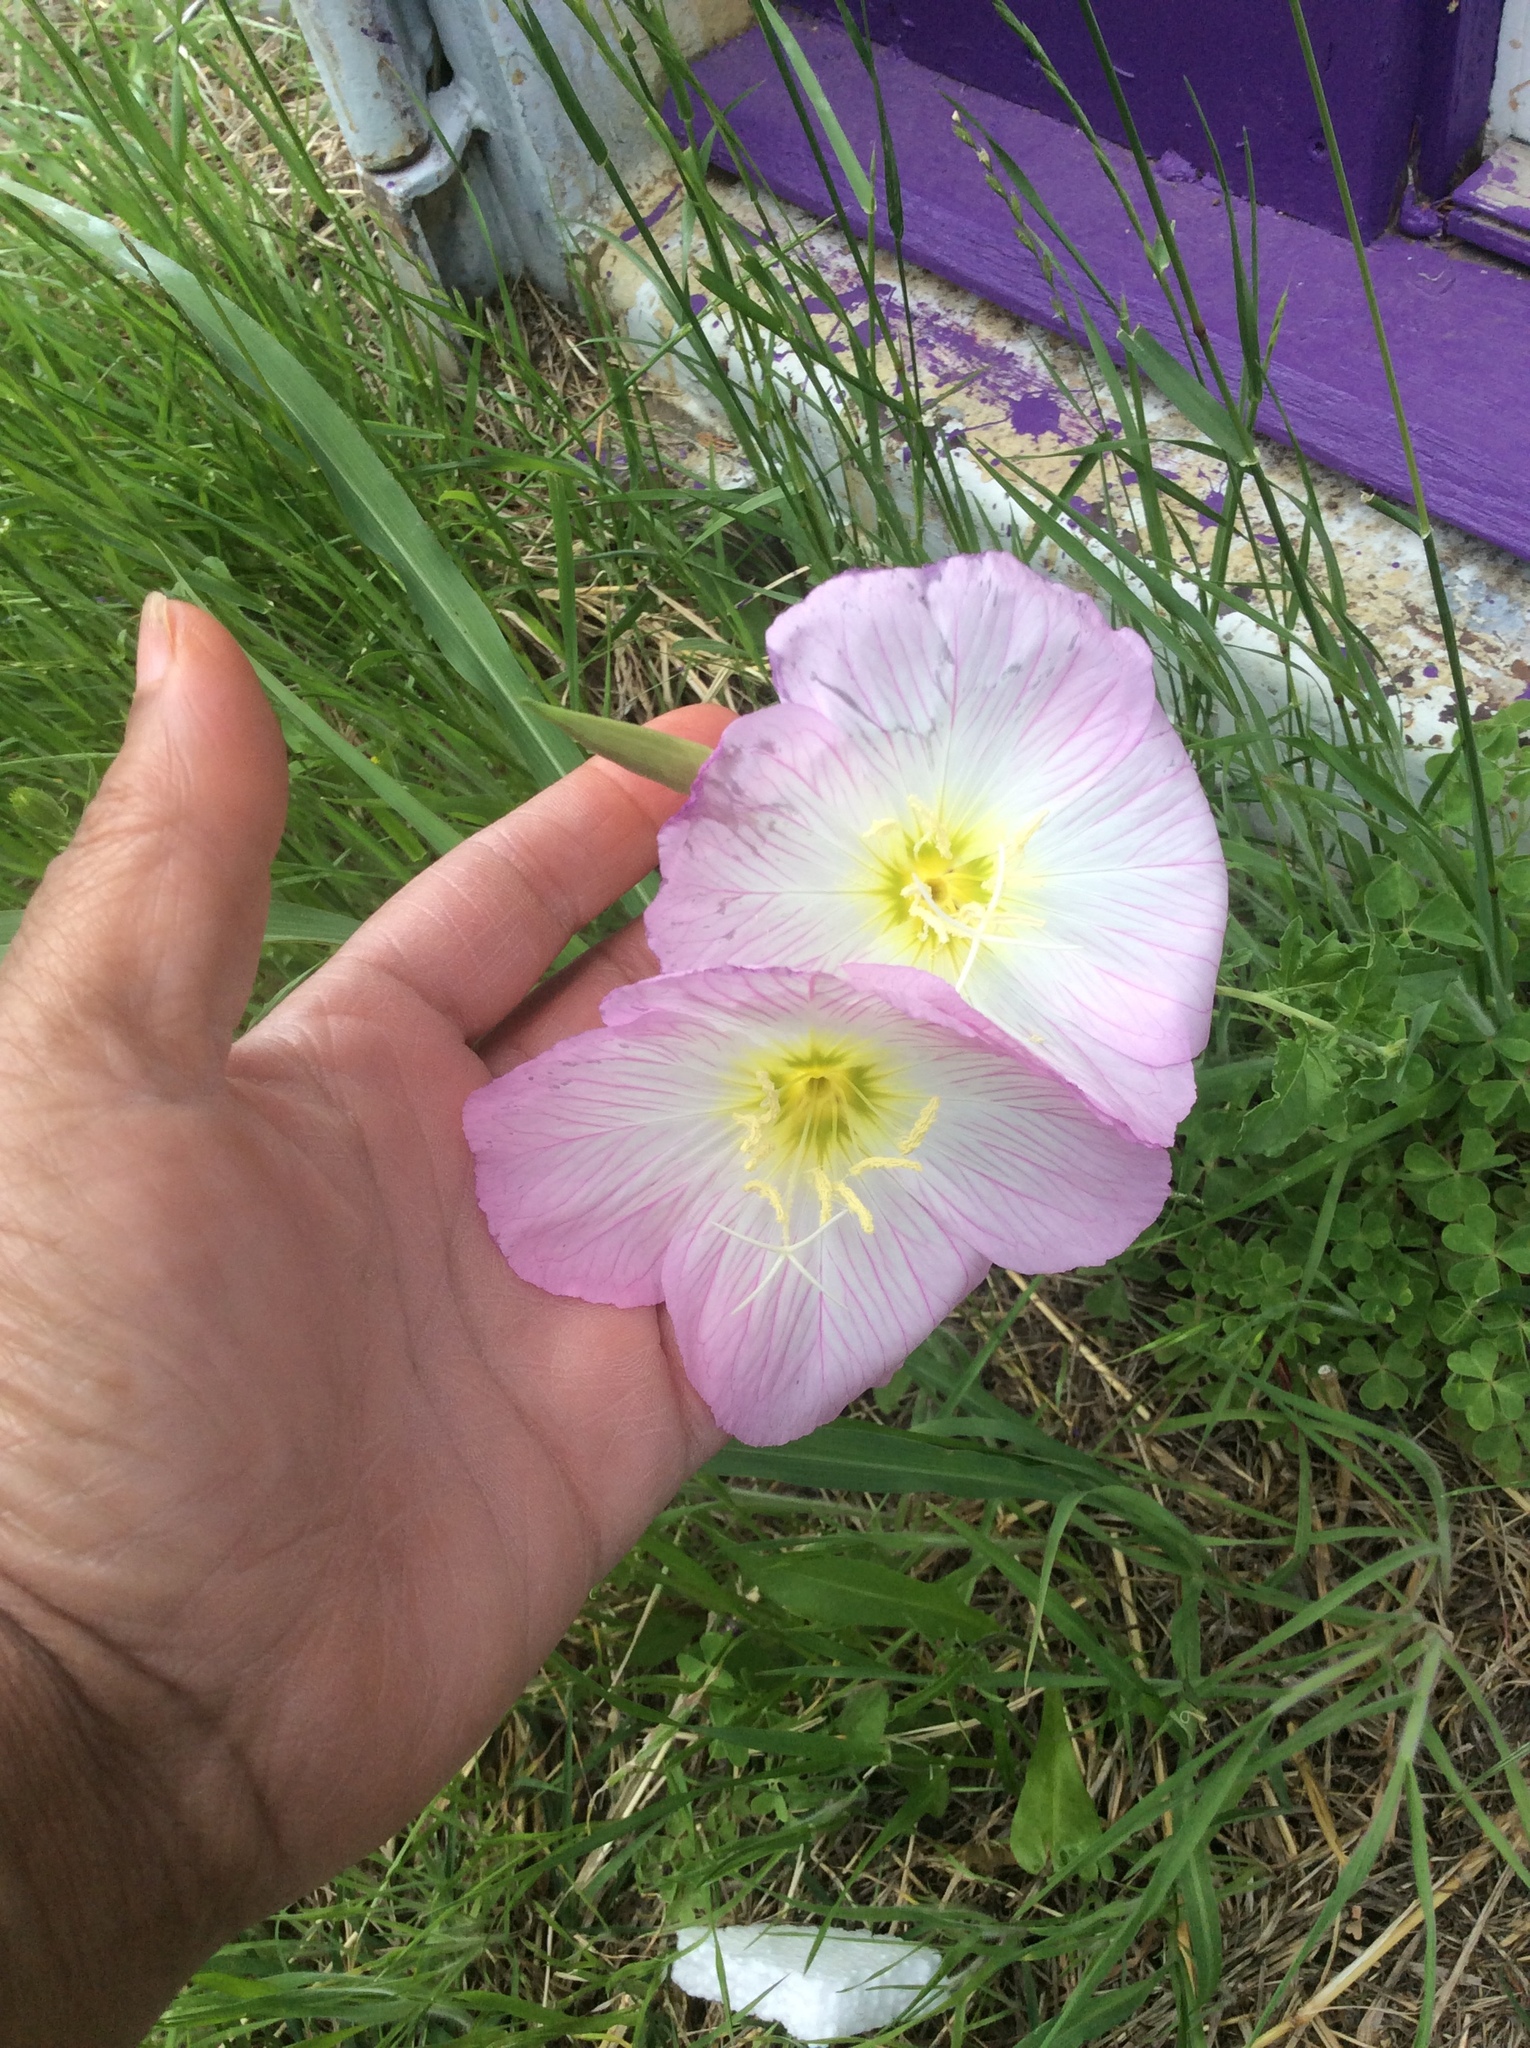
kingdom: Plantae
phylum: Tracheophyta
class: Magnoliopsida
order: Myrtales
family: Onagraceae
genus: Oenothera
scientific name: Oenothera speciosa
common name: White evening-primrose
